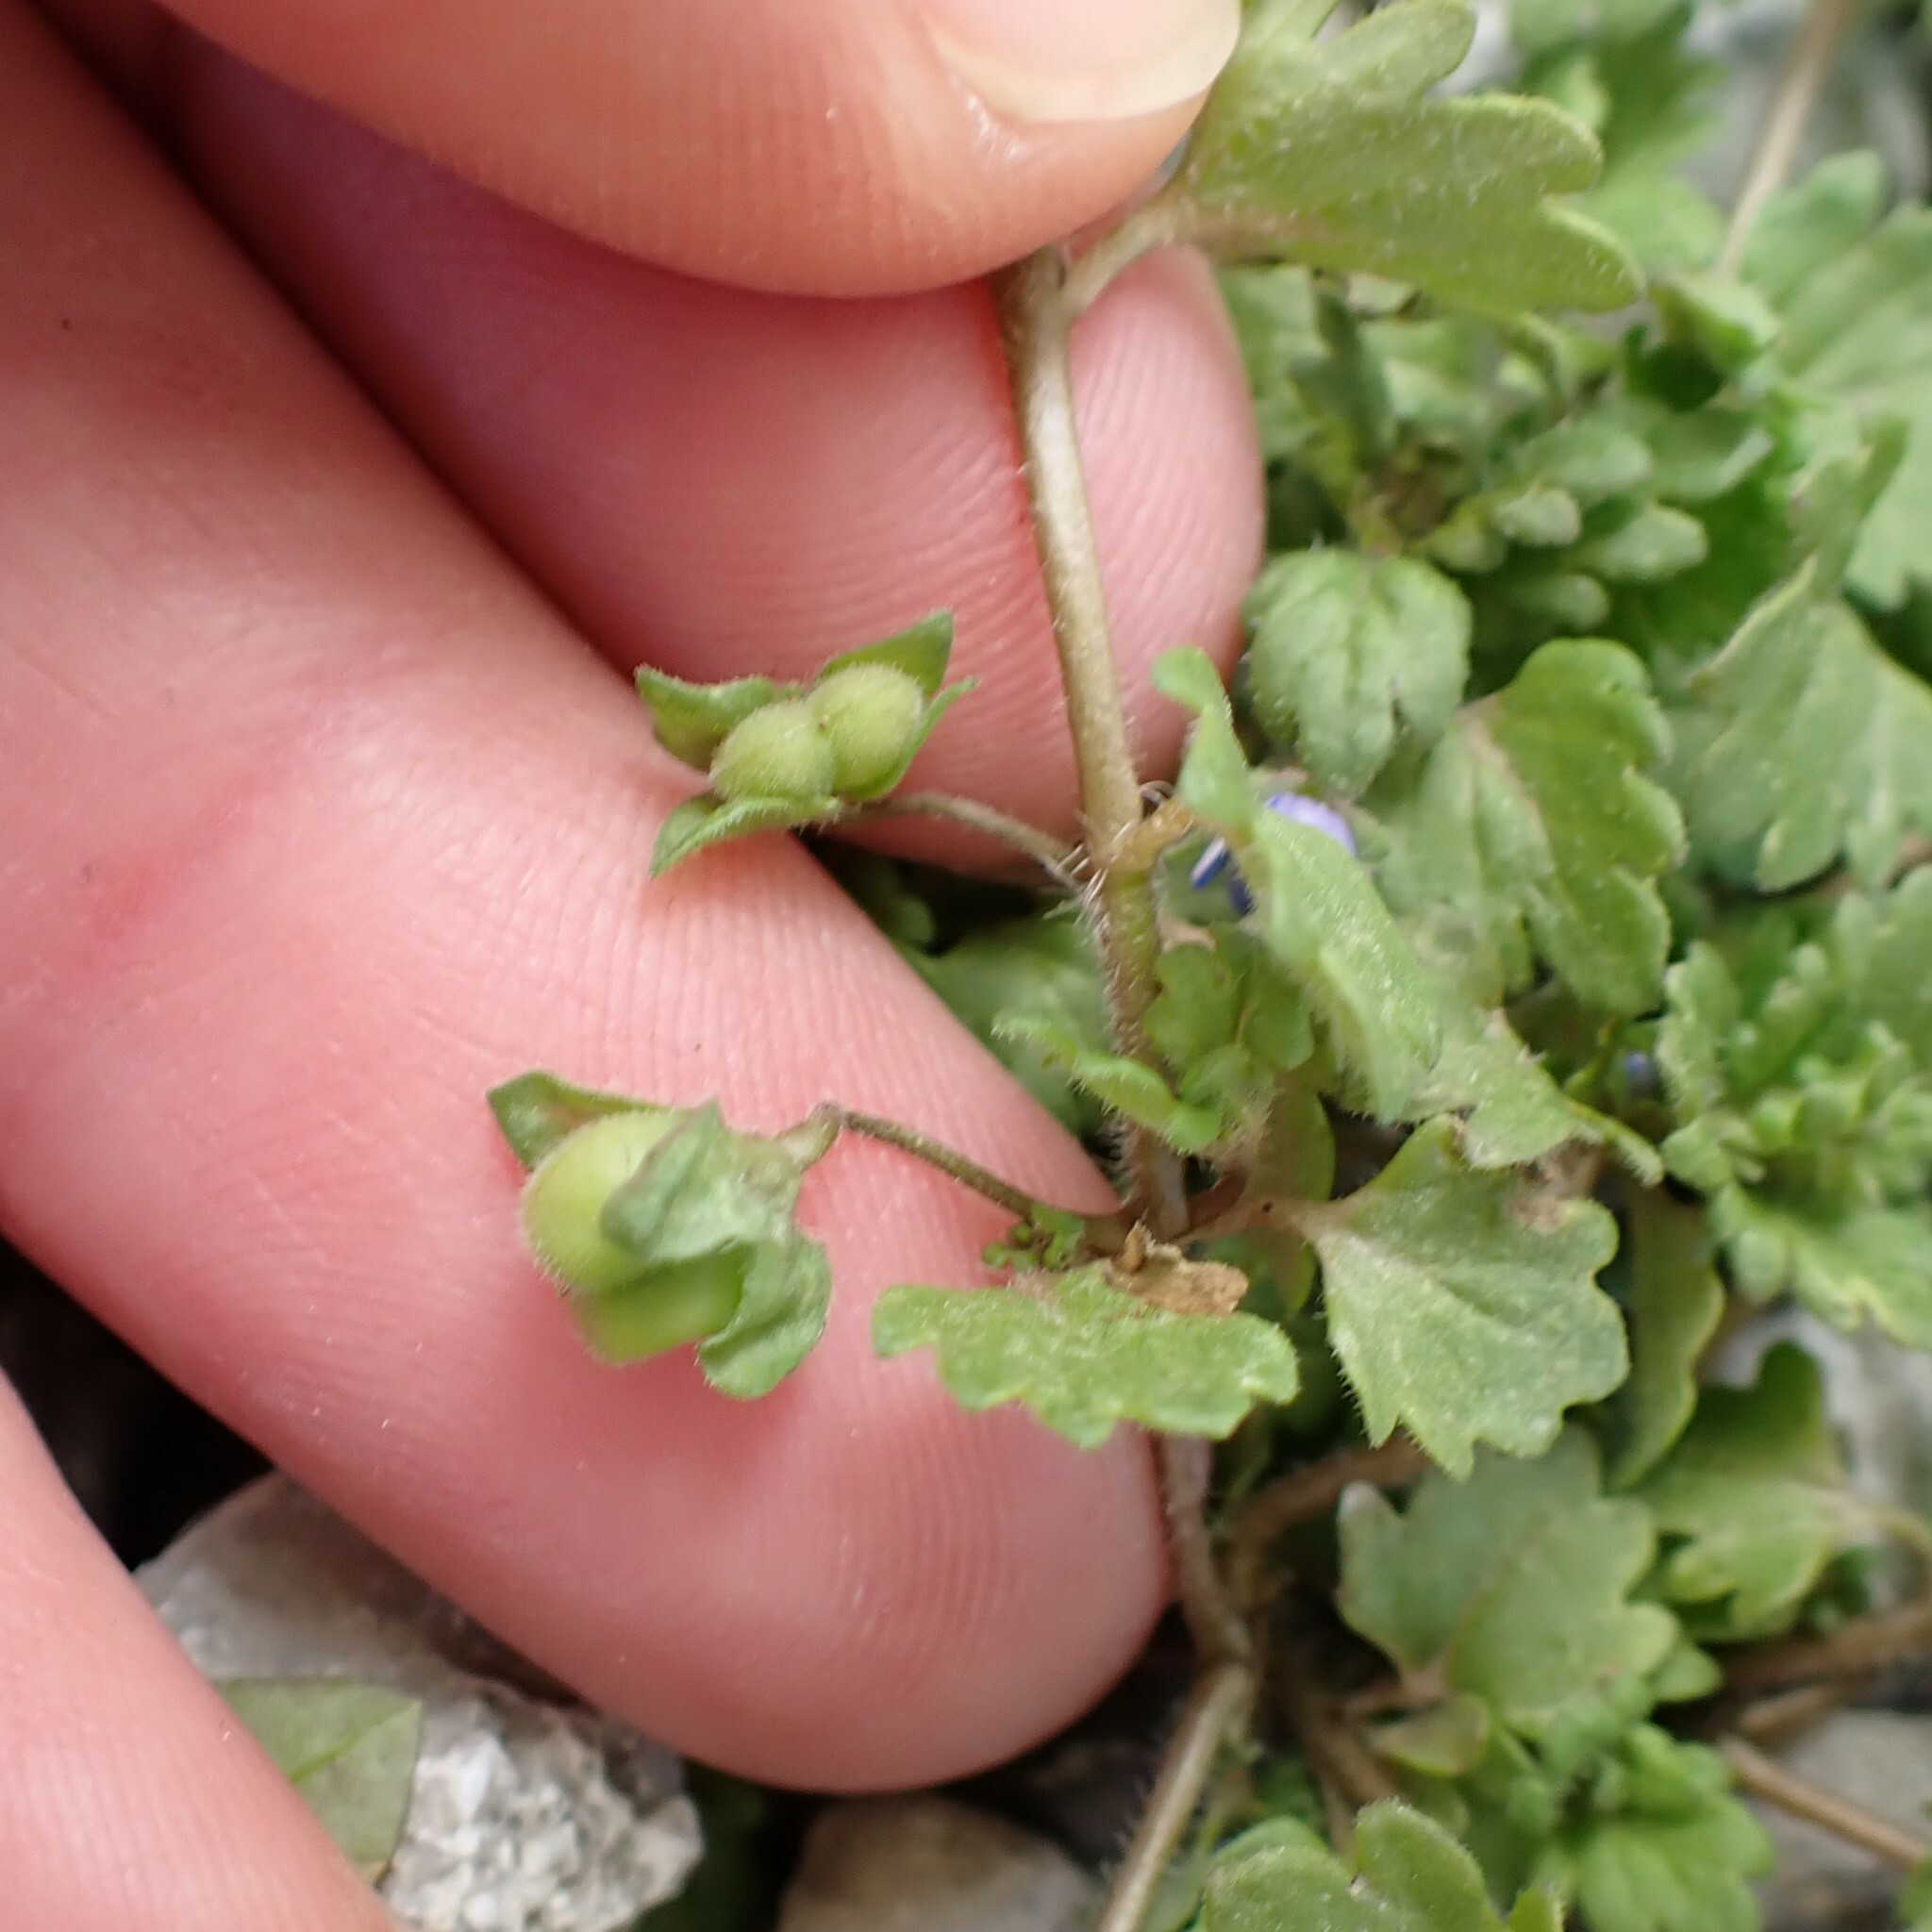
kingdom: Plantae
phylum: Tracheophyta
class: Magnoliopsida
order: Lamiales
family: Plantaginaceae
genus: Veronica
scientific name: Veronica polita
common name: Grey field-speedwell
